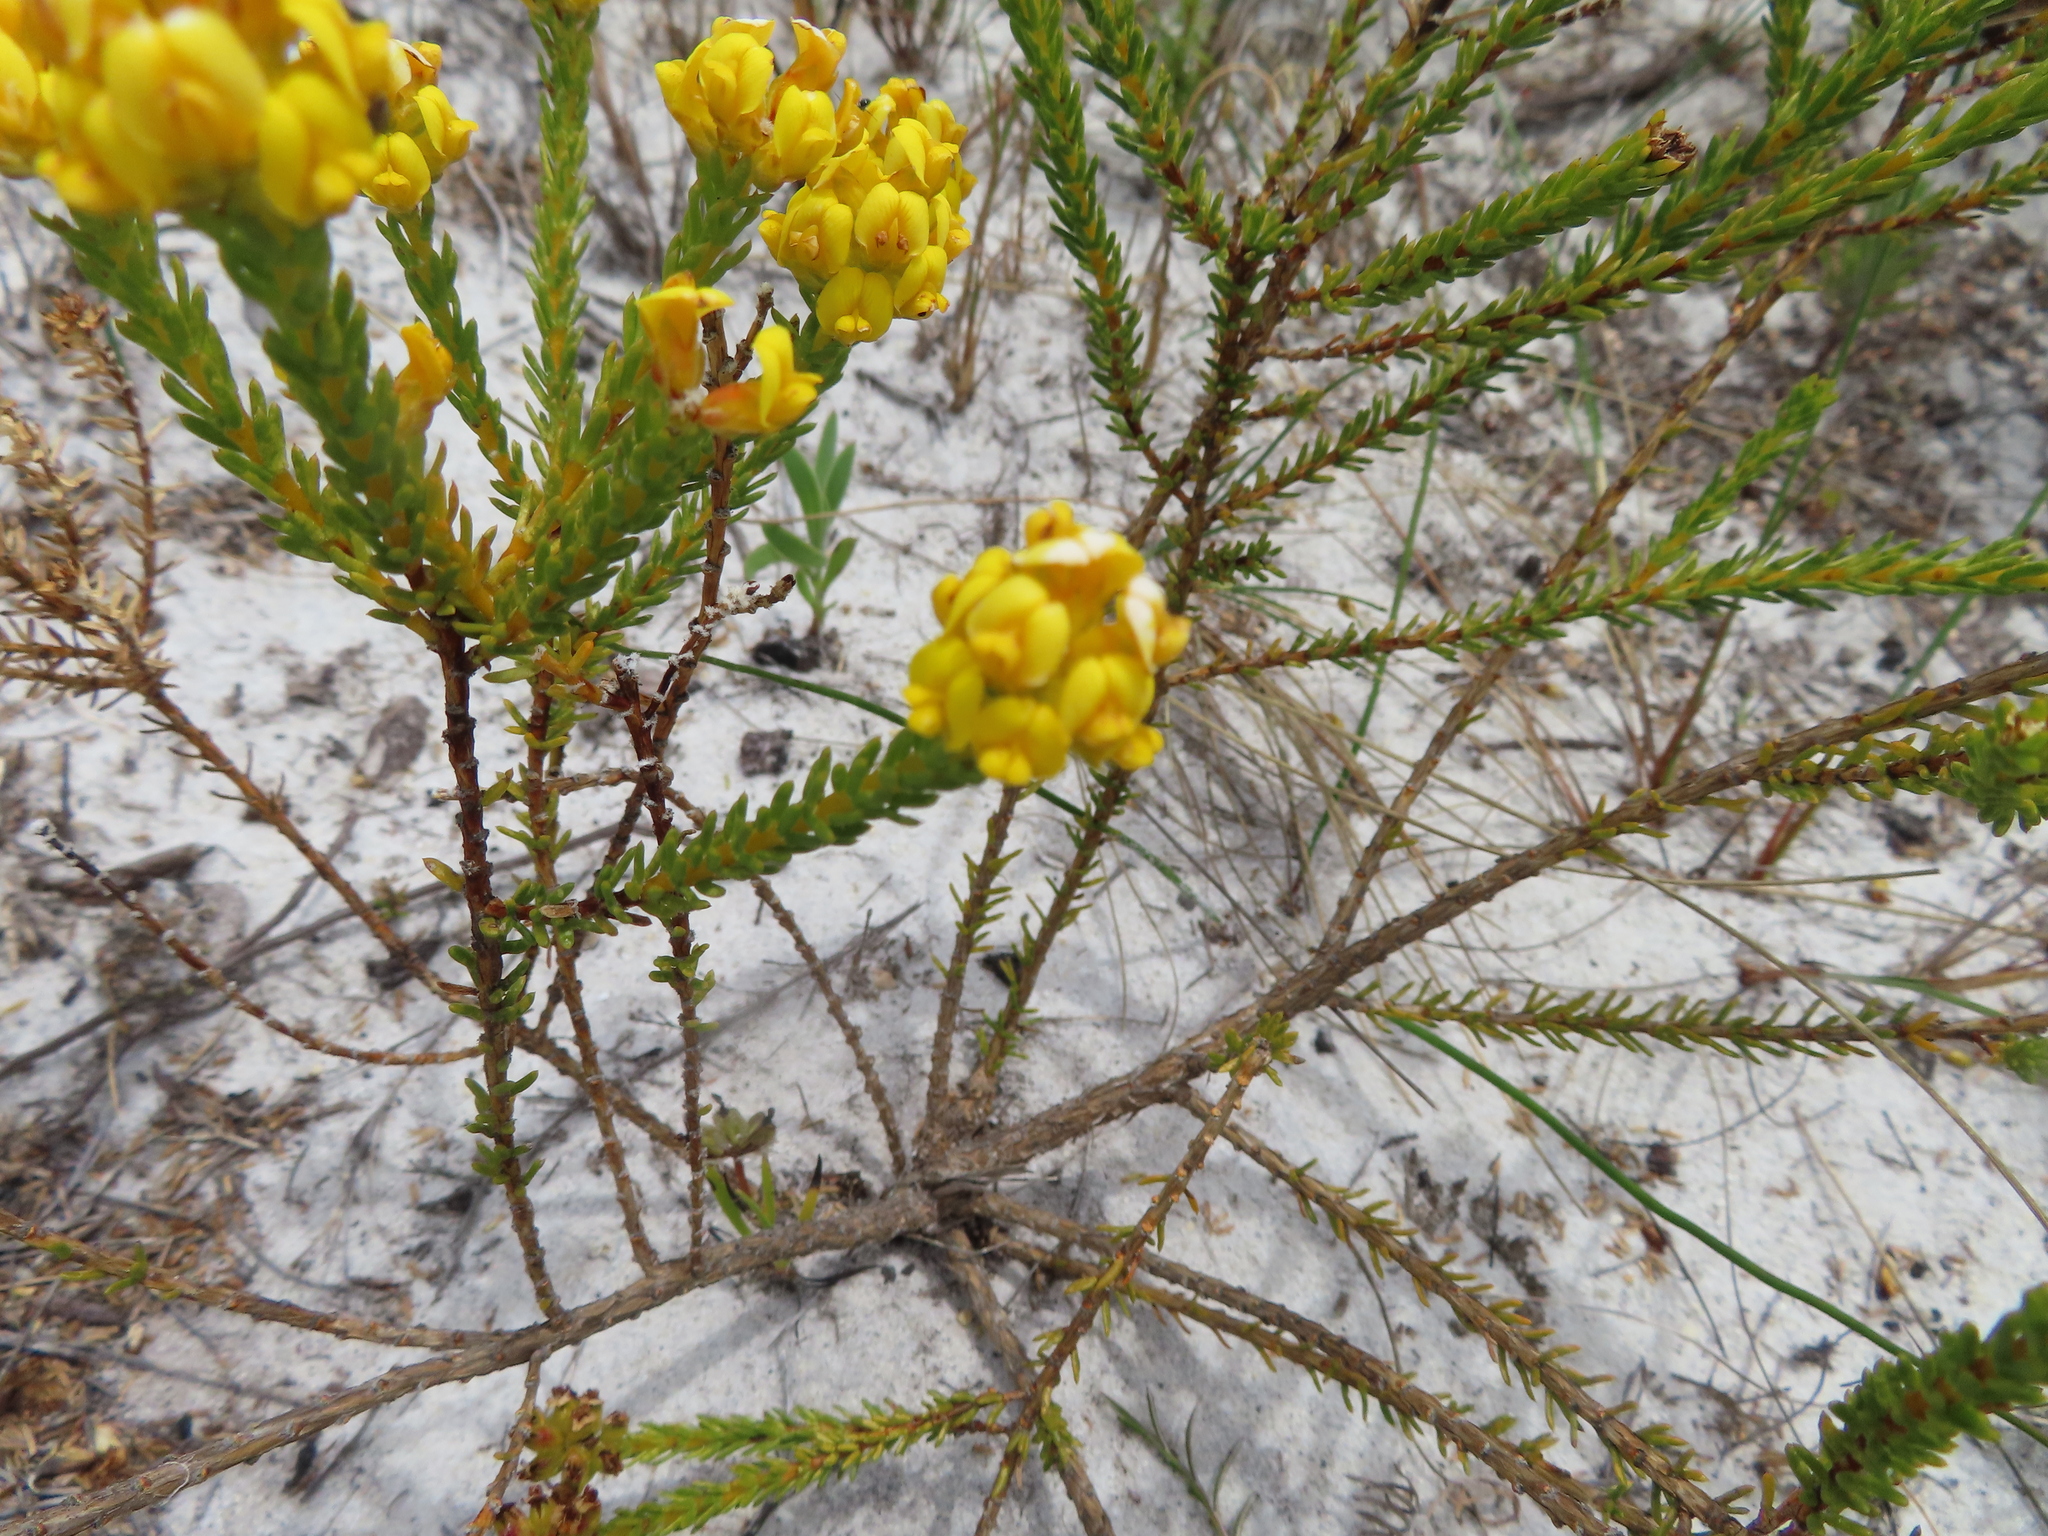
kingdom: Plantae
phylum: Tracheophyta
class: Magnoliopsida
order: Fabales
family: Fabaceae
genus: Aspalathus
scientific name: Aspalathus callosa
